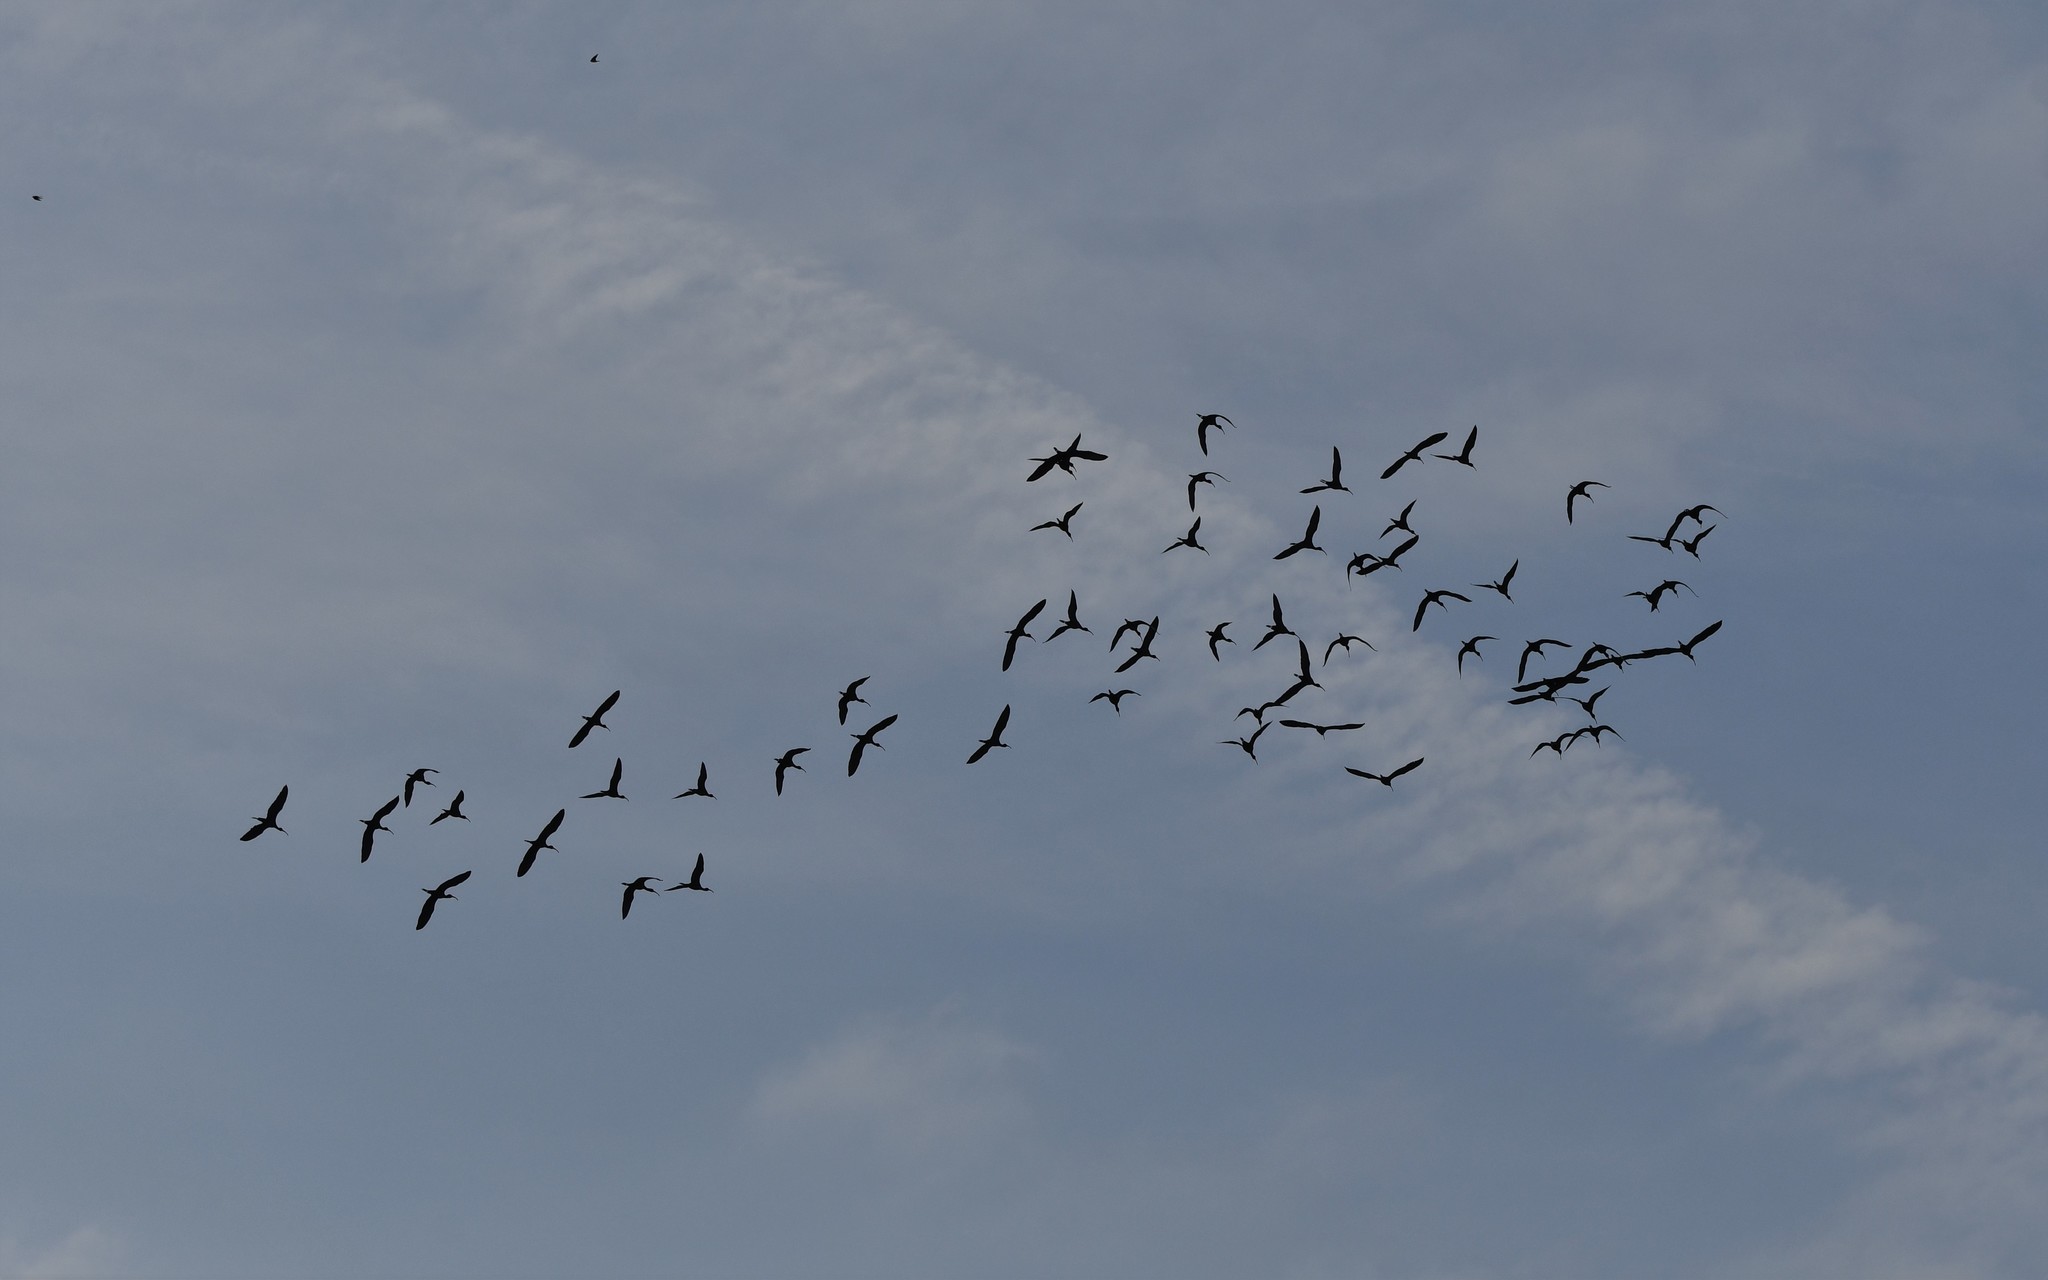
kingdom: Animalia
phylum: Chordata
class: Aves
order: Pelecaniformes
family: Threskiornithidae
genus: Plegadis
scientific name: Plegadis falcinellus
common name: Glossy ibis
